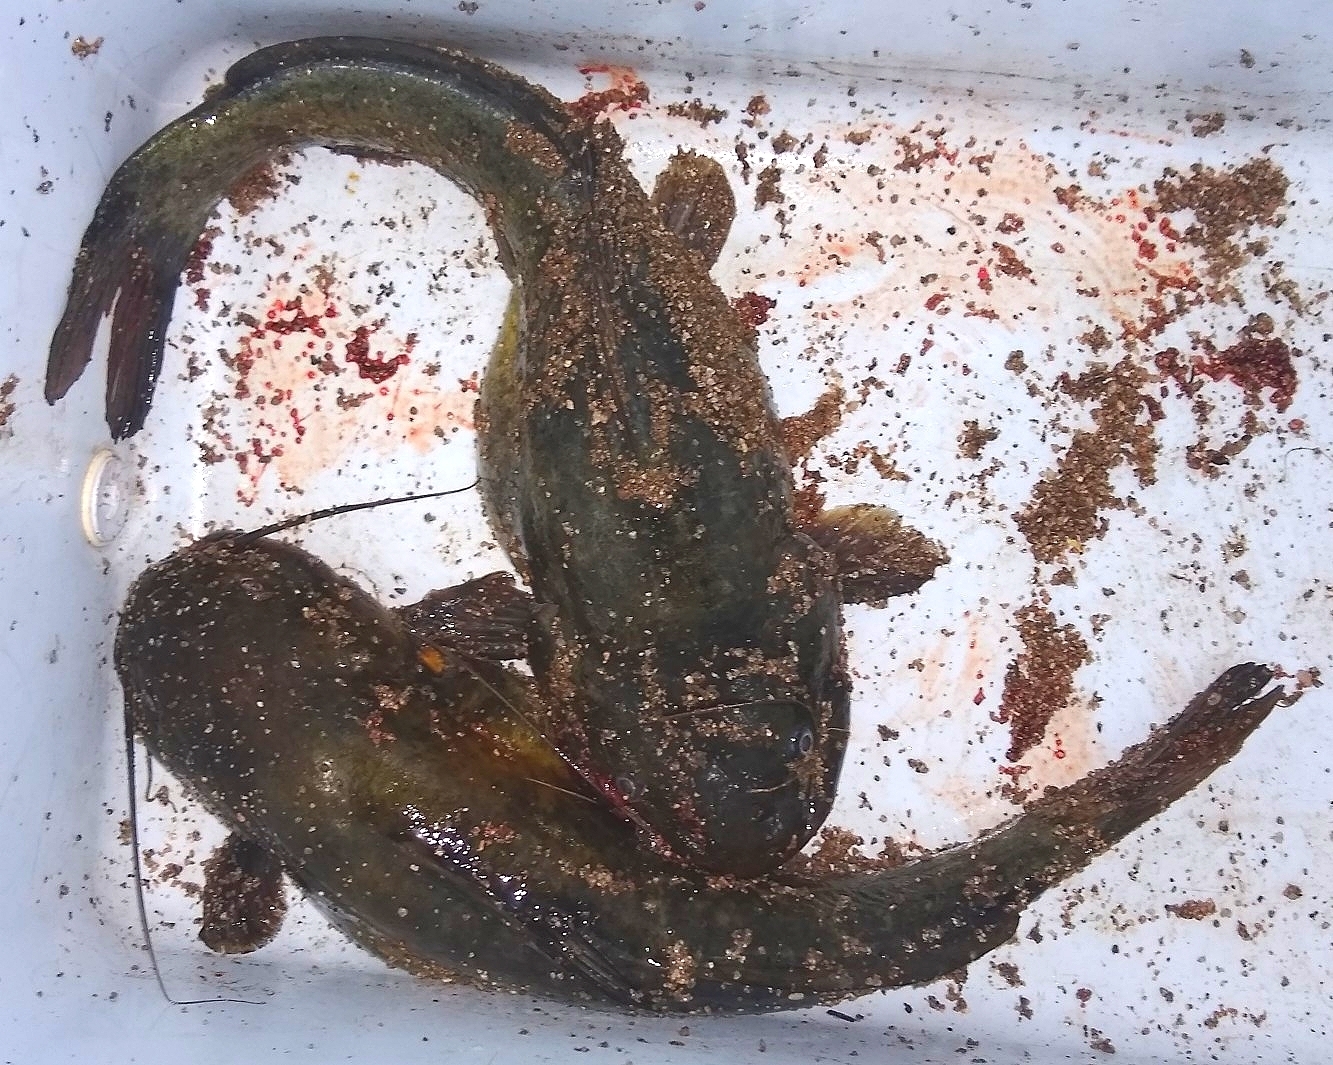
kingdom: Animalia
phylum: Chordata
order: Siluriformes
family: Heptapteridae
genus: Rhamdia
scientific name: Rhamdia quelen
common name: Catfish
